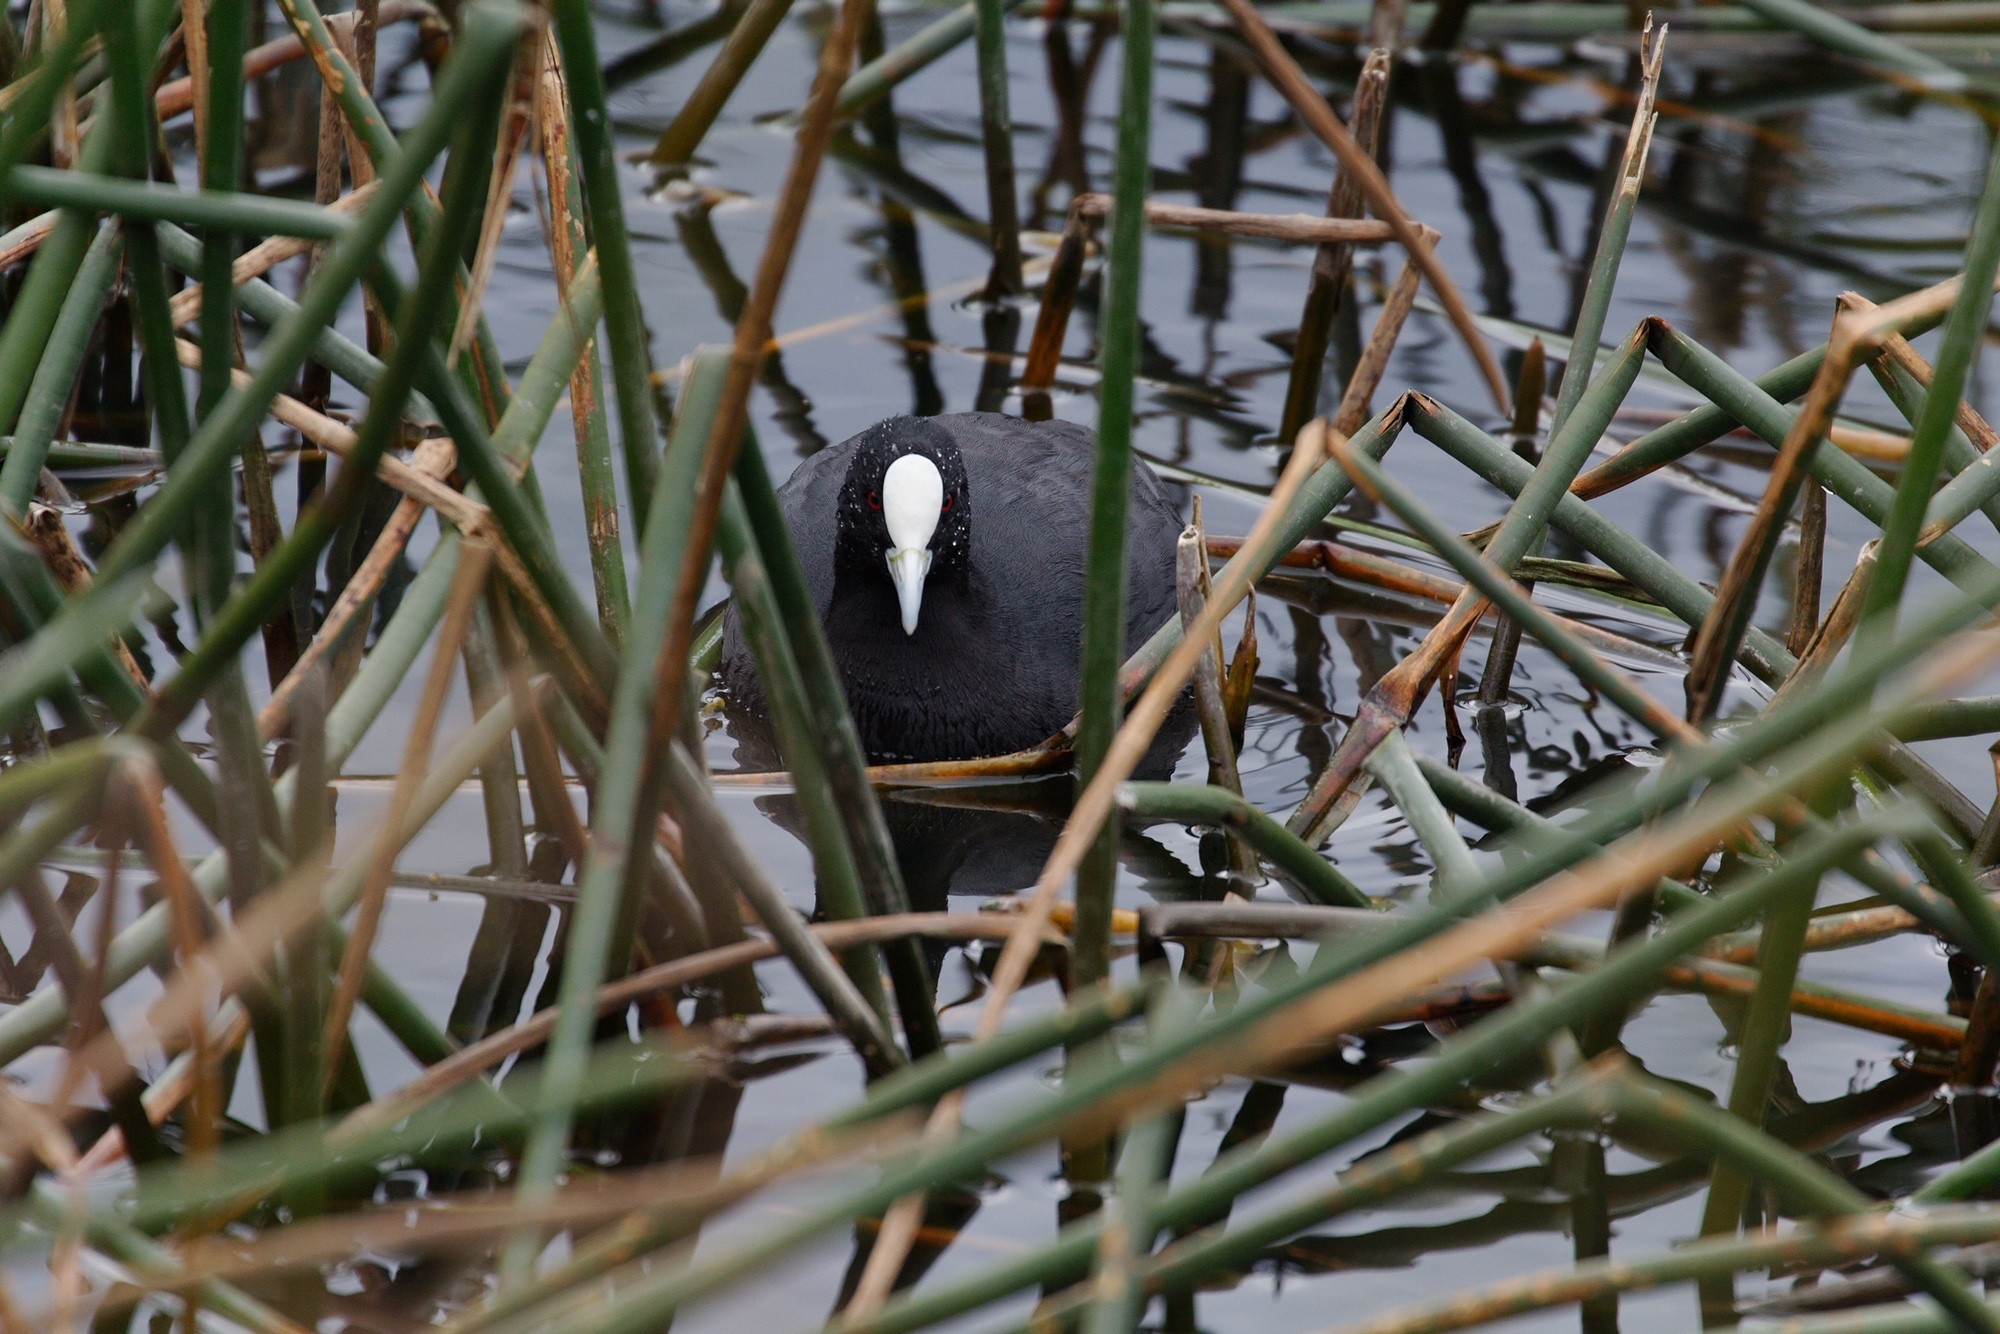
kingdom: Animalia
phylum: Chordata
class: Aves
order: Gruiformes
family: Rallidae
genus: Fulica
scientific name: Fulica atra
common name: Eurasian coot
